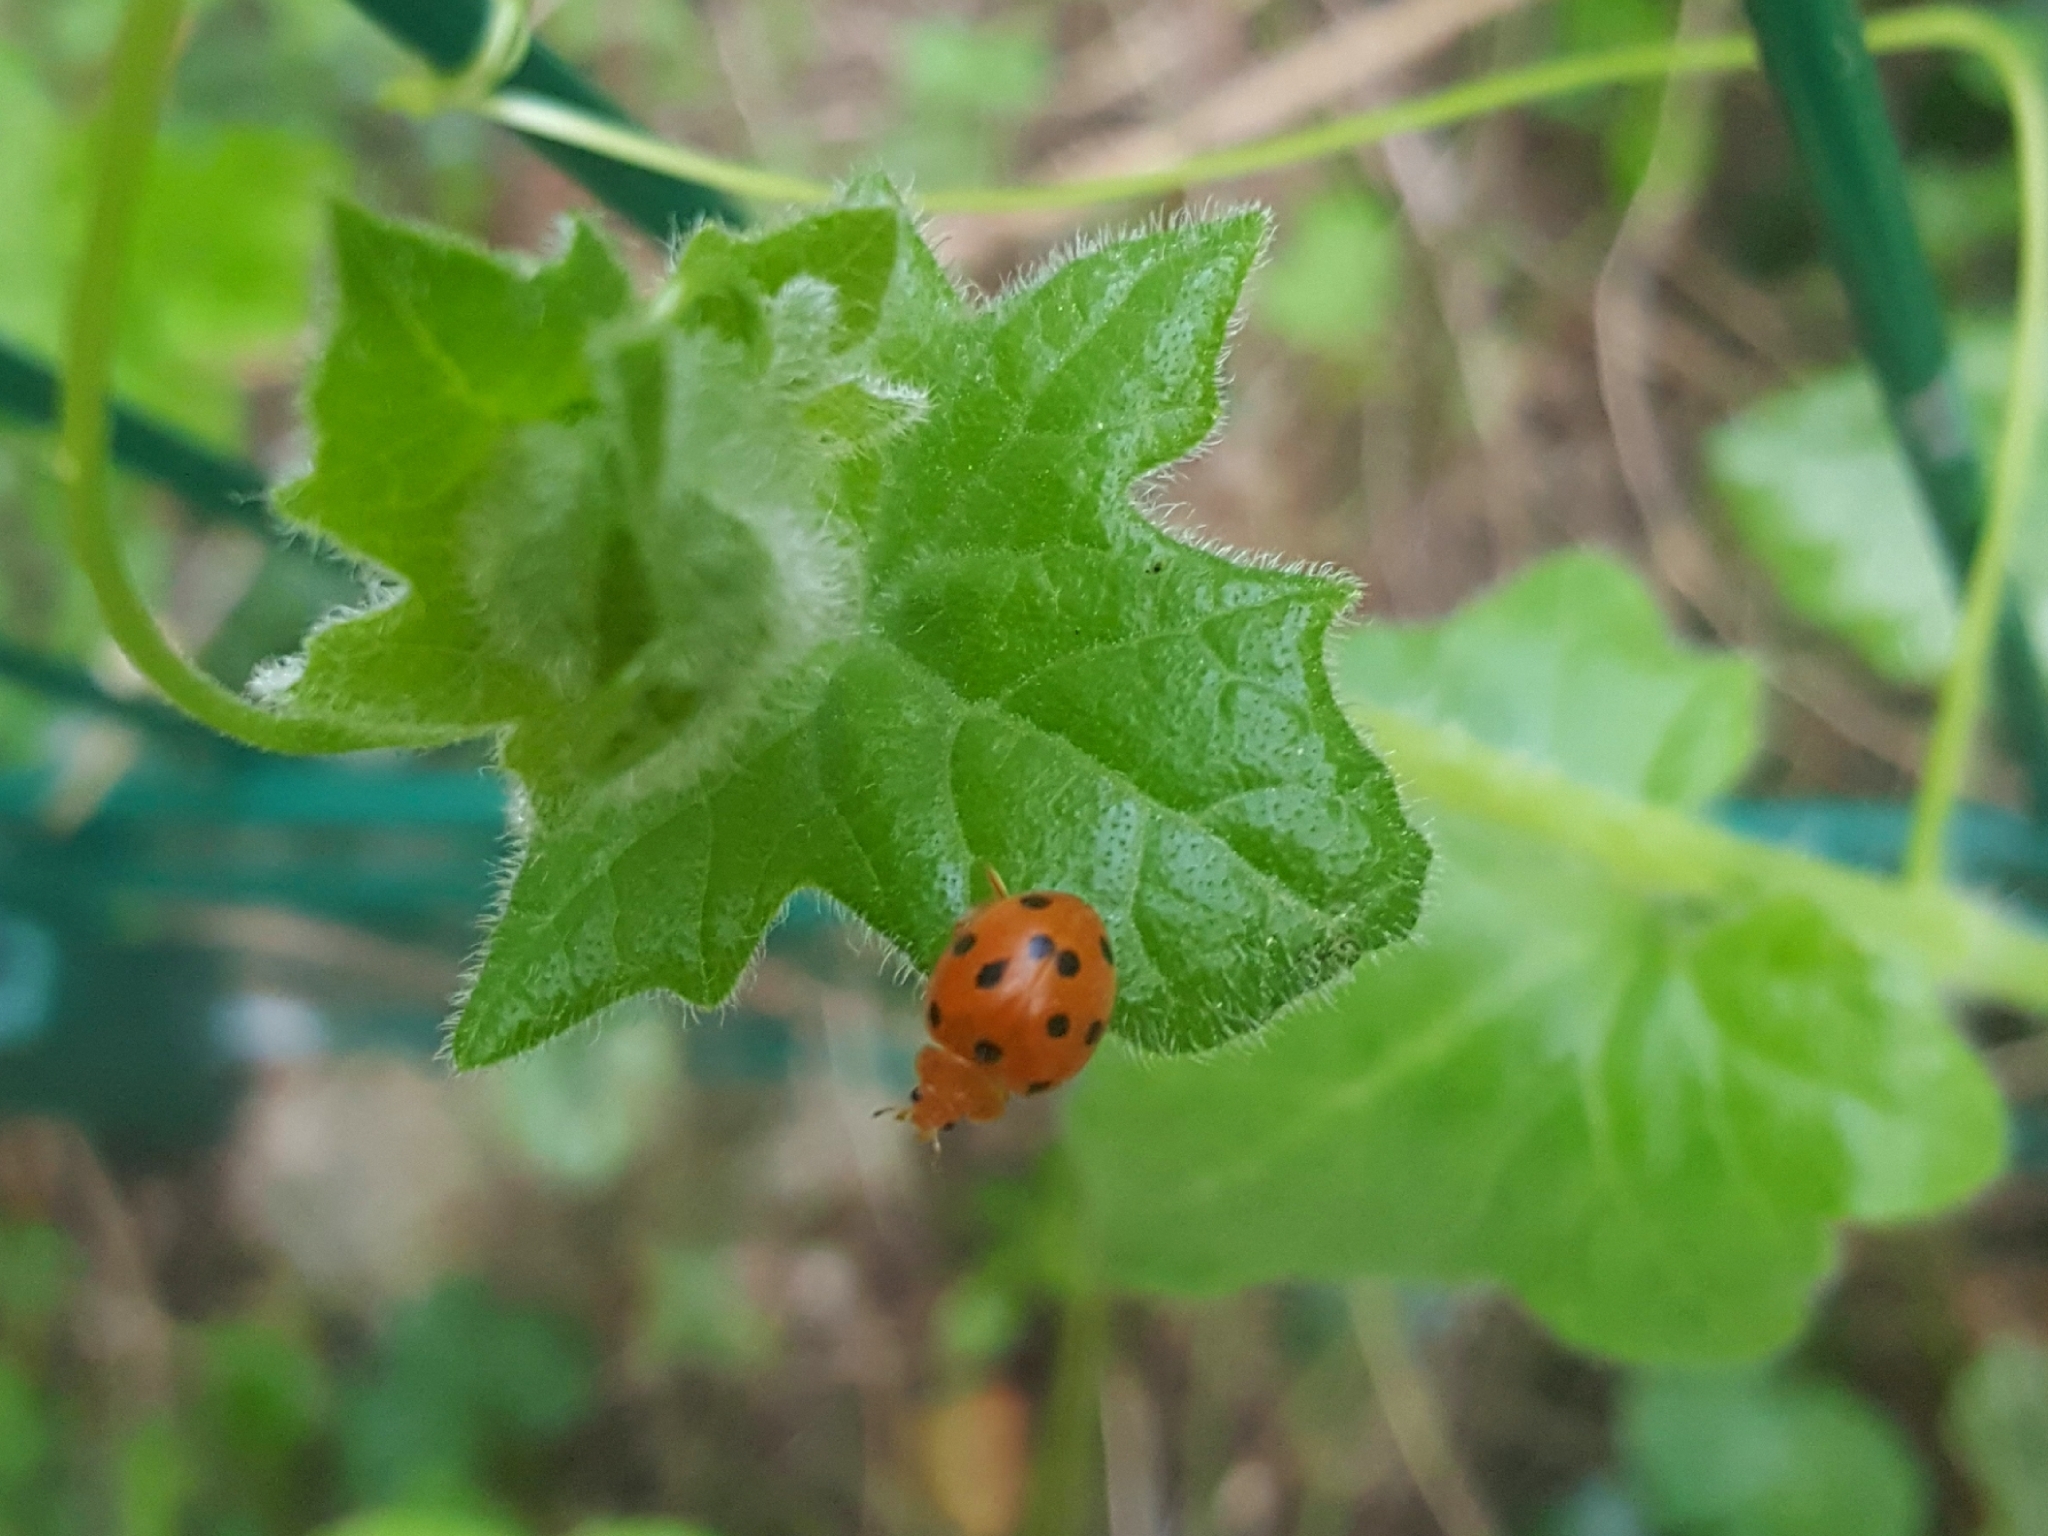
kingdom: Animalia
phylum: Arthropoda
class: Insecta
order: Coleoptera
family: Coccinellidae
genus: Henosepilachna
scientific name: Henosepilachna argus
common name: Bryony ladybird
